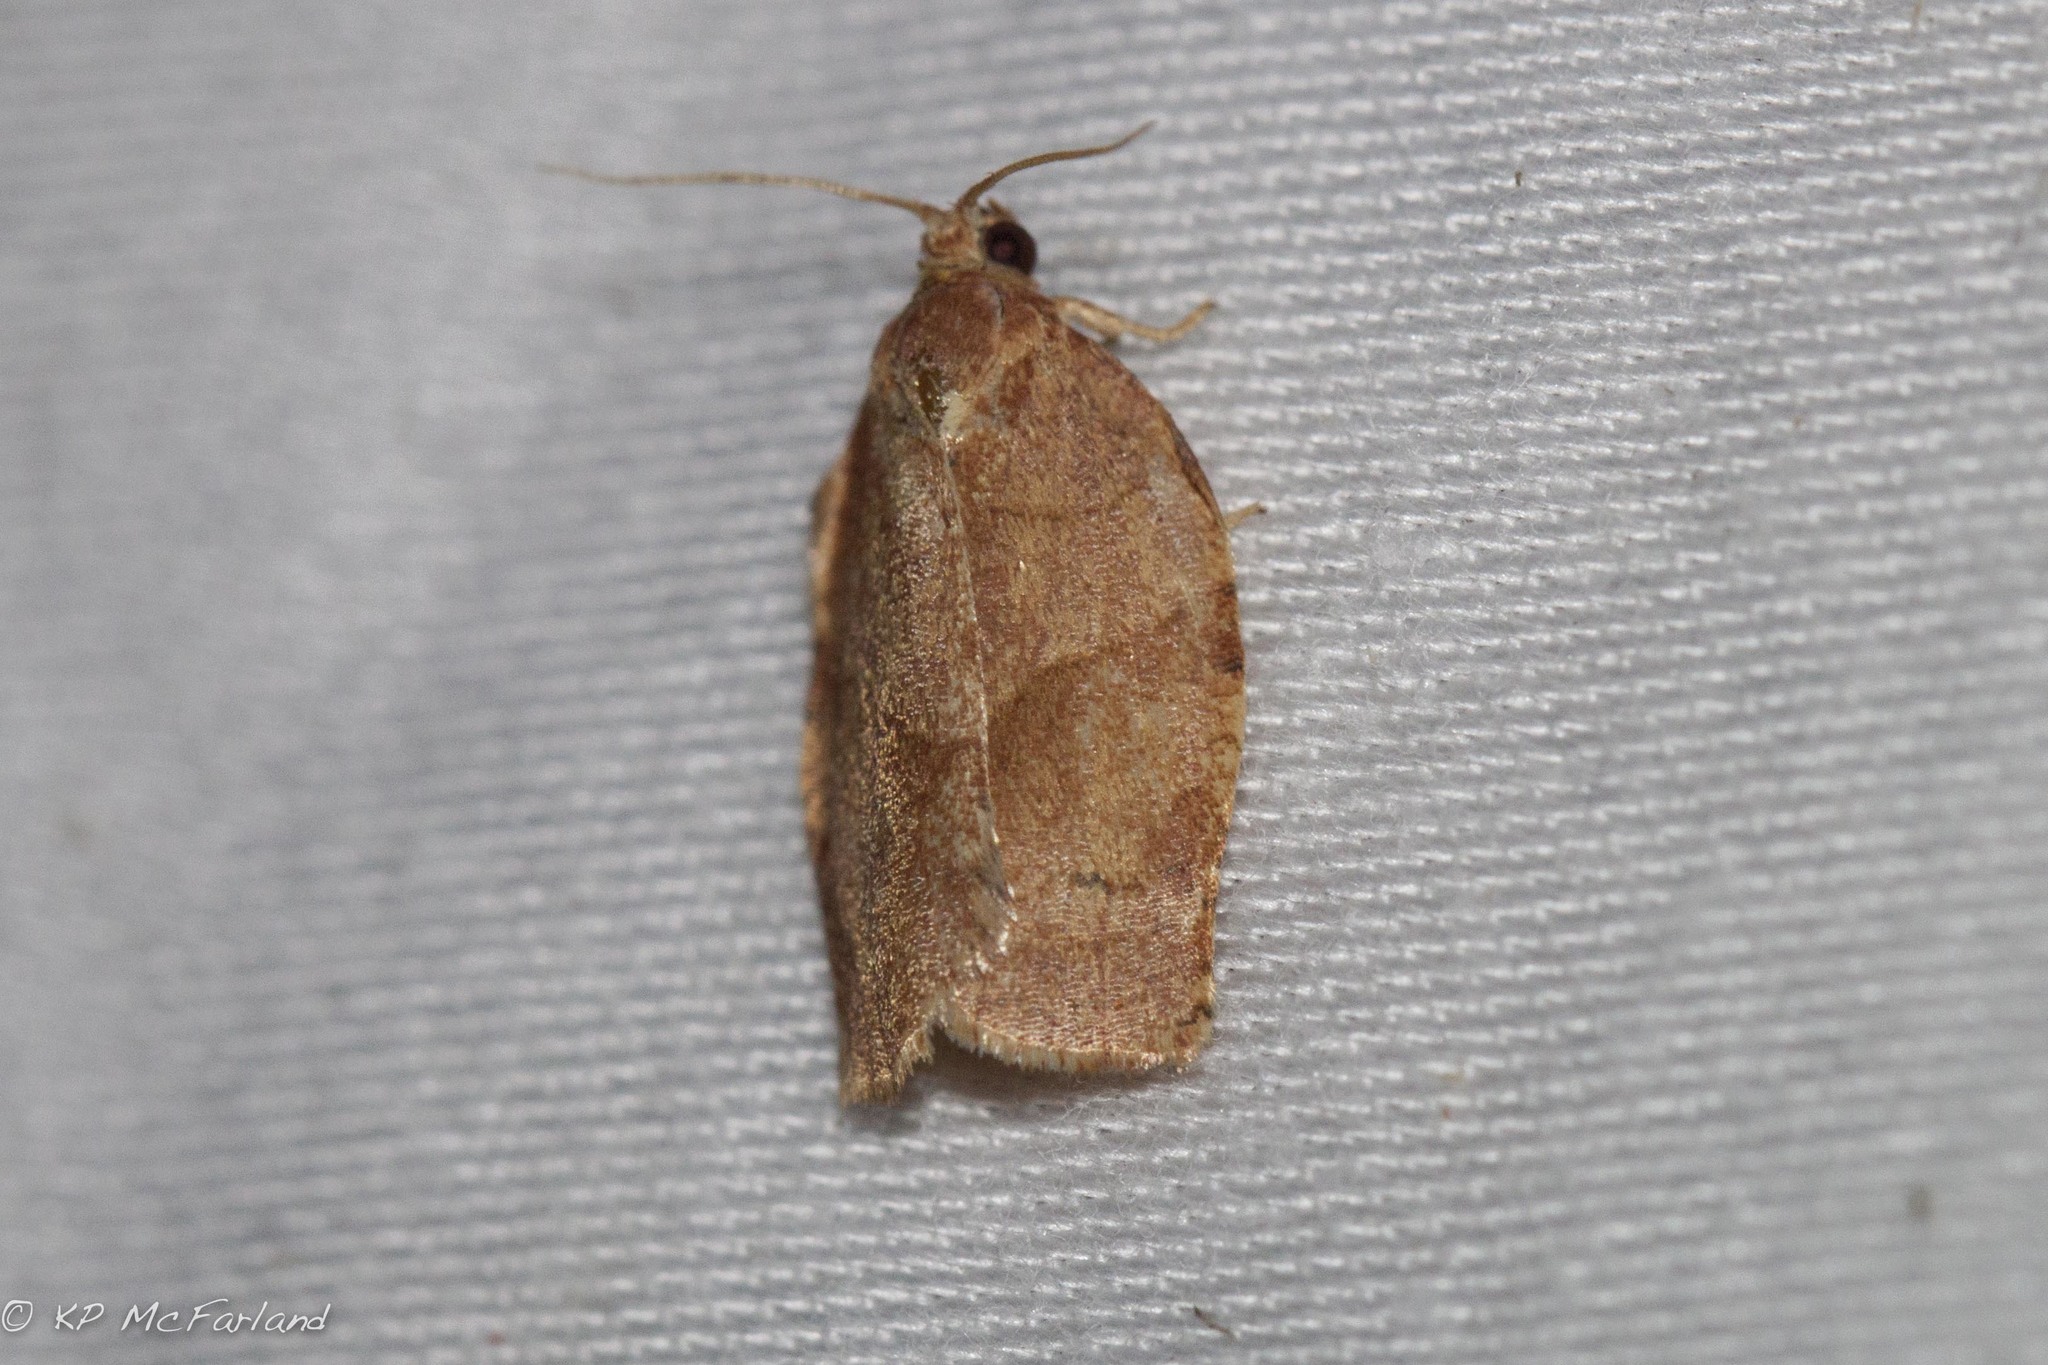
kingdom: Animalia
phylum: Arthropoda
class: Insecta
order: Lepidoptera
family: Tortricidae
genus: Choristoneura
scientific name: Choristoneura rosaceana
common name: Oblique-banded leafroller moth
